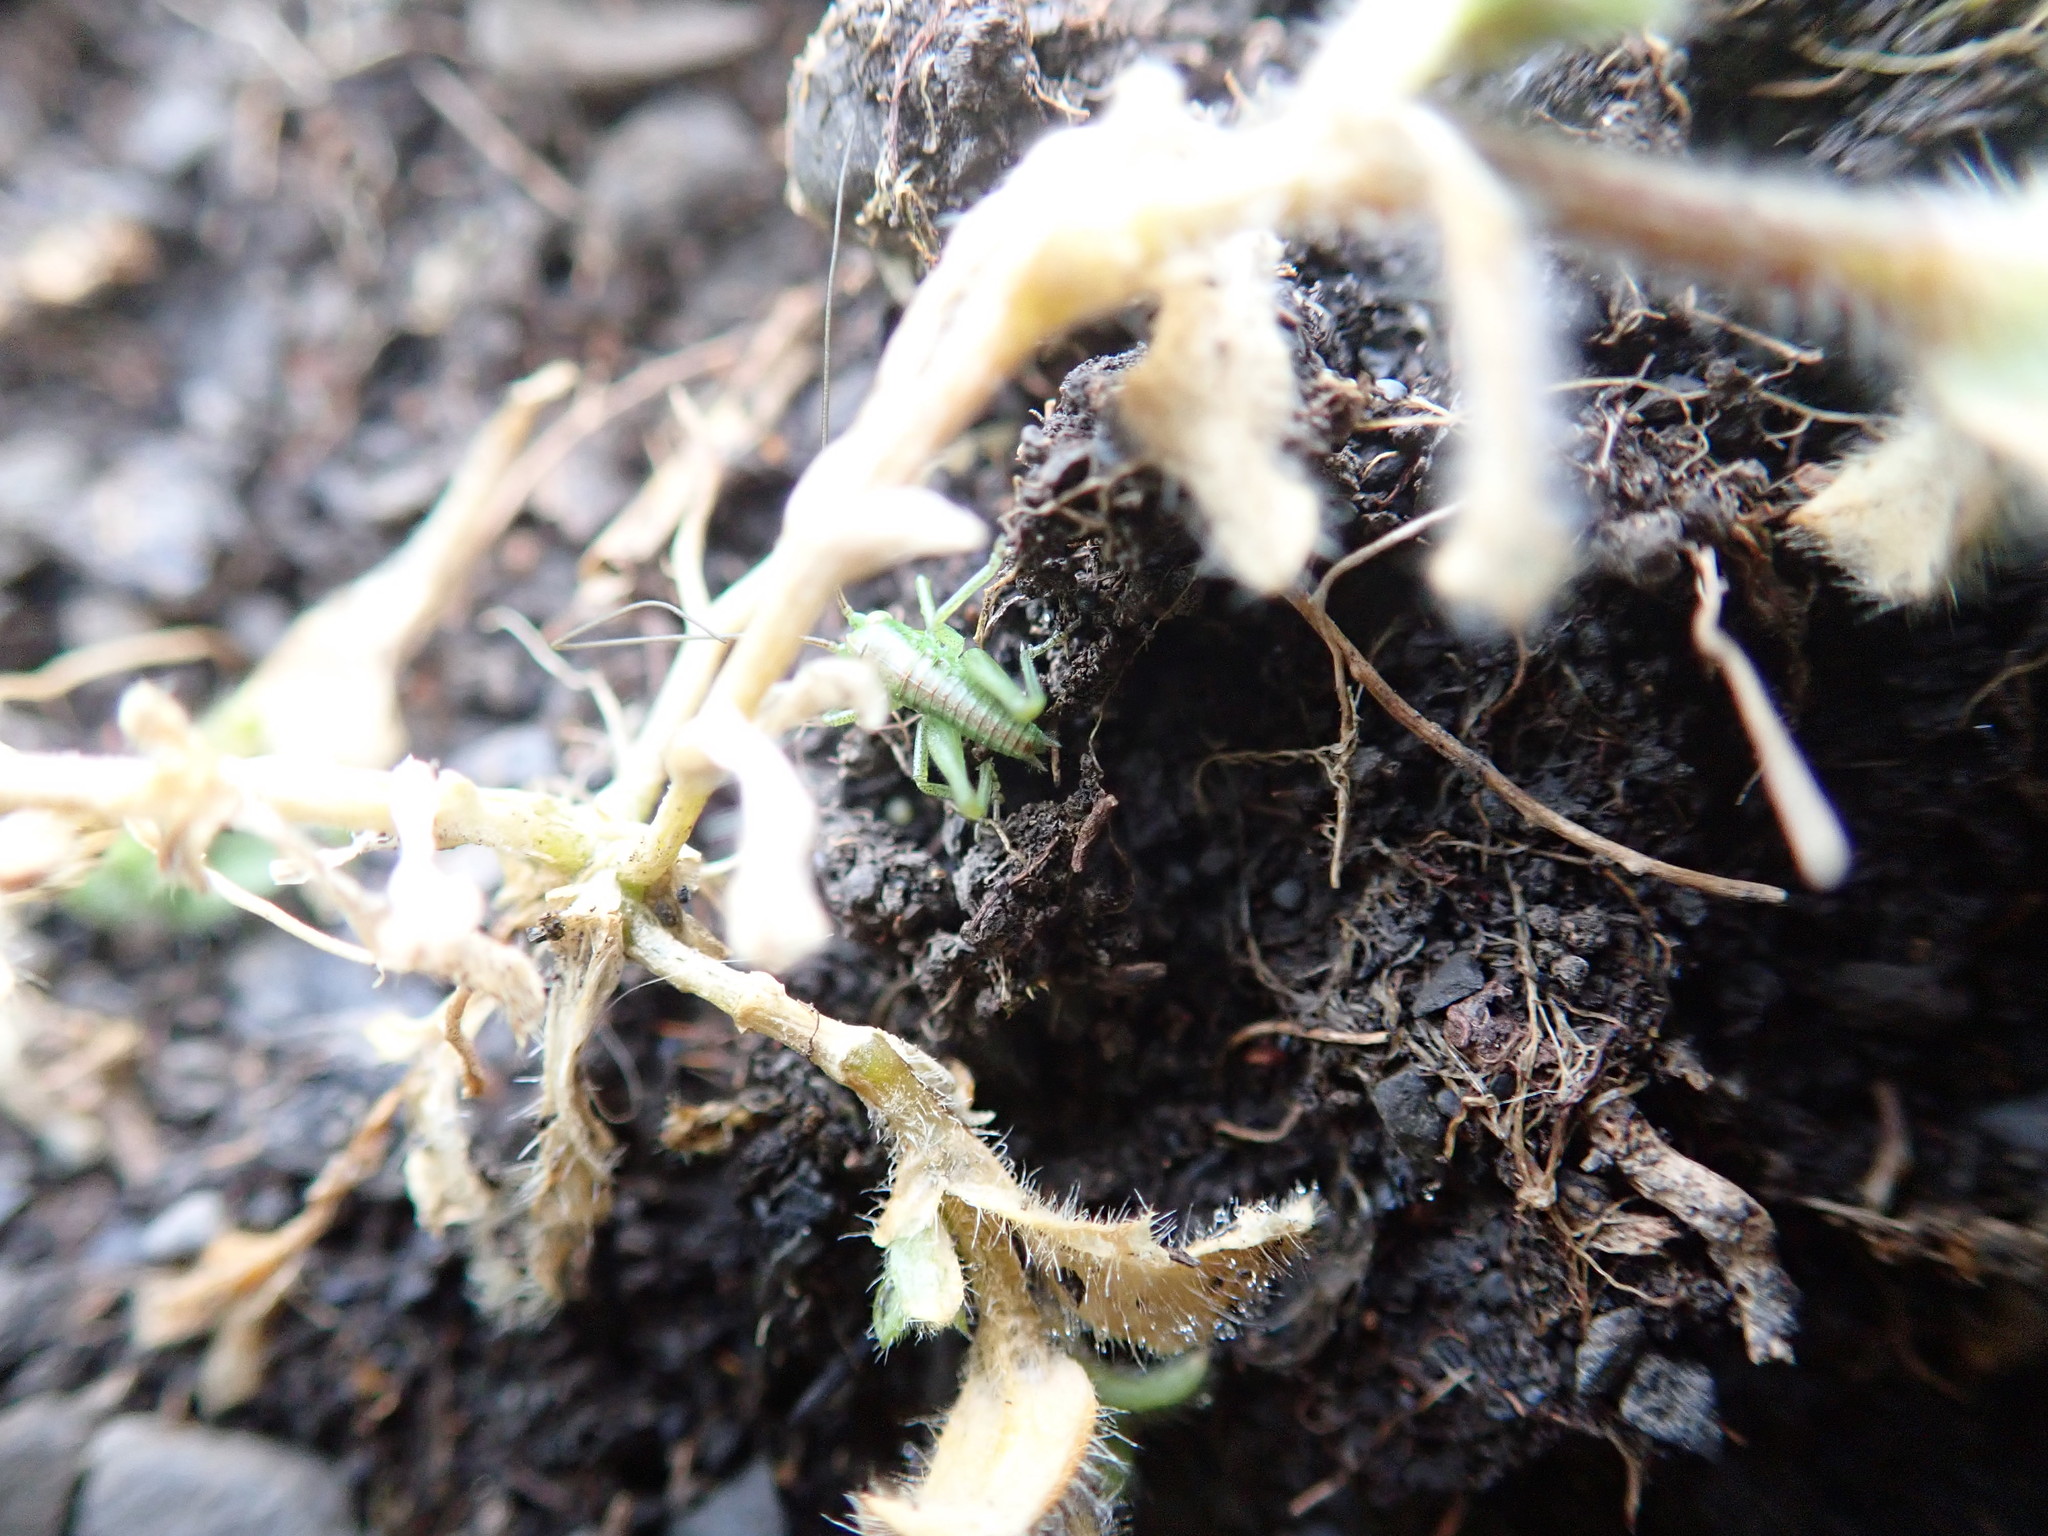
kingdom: Animalia
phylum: Arthropoda
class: Insecta
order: Orthoptera
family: Tettigoniidae
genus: Tettigonia
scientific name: Tettigonia viridissima
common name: Great green bush-cricket
